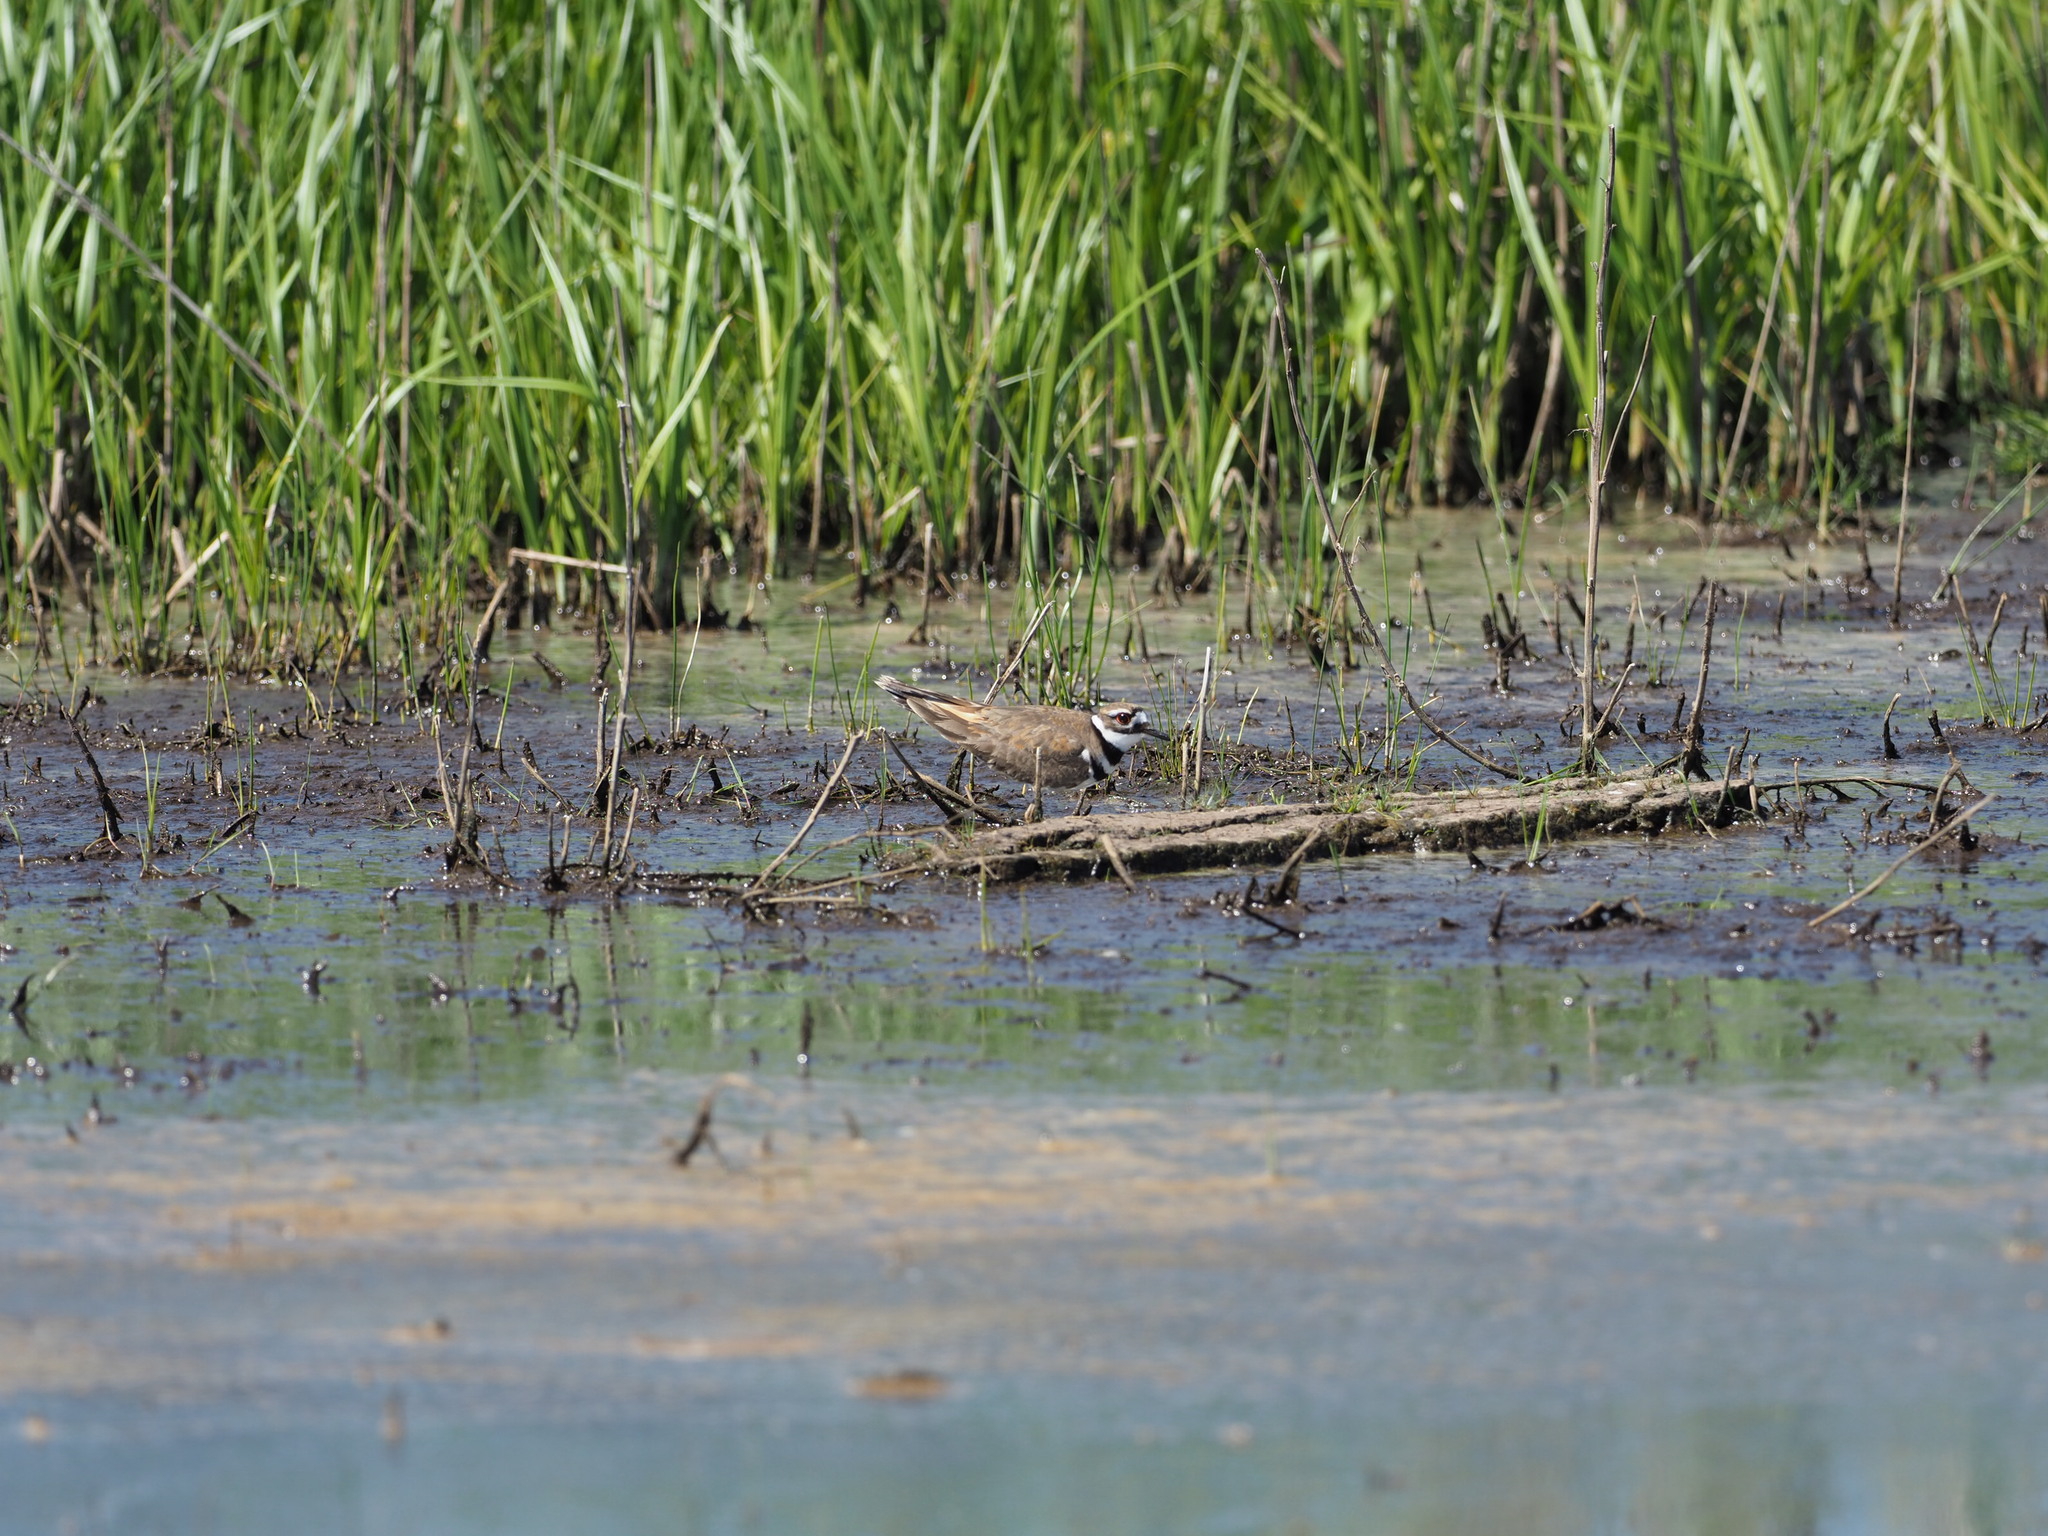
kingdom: Animalia
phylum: Chordata
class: Aves
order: Charadriiformes
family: Charadriidae
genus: Charadrius
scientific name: Charadrius vociferus
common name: Killdeer
